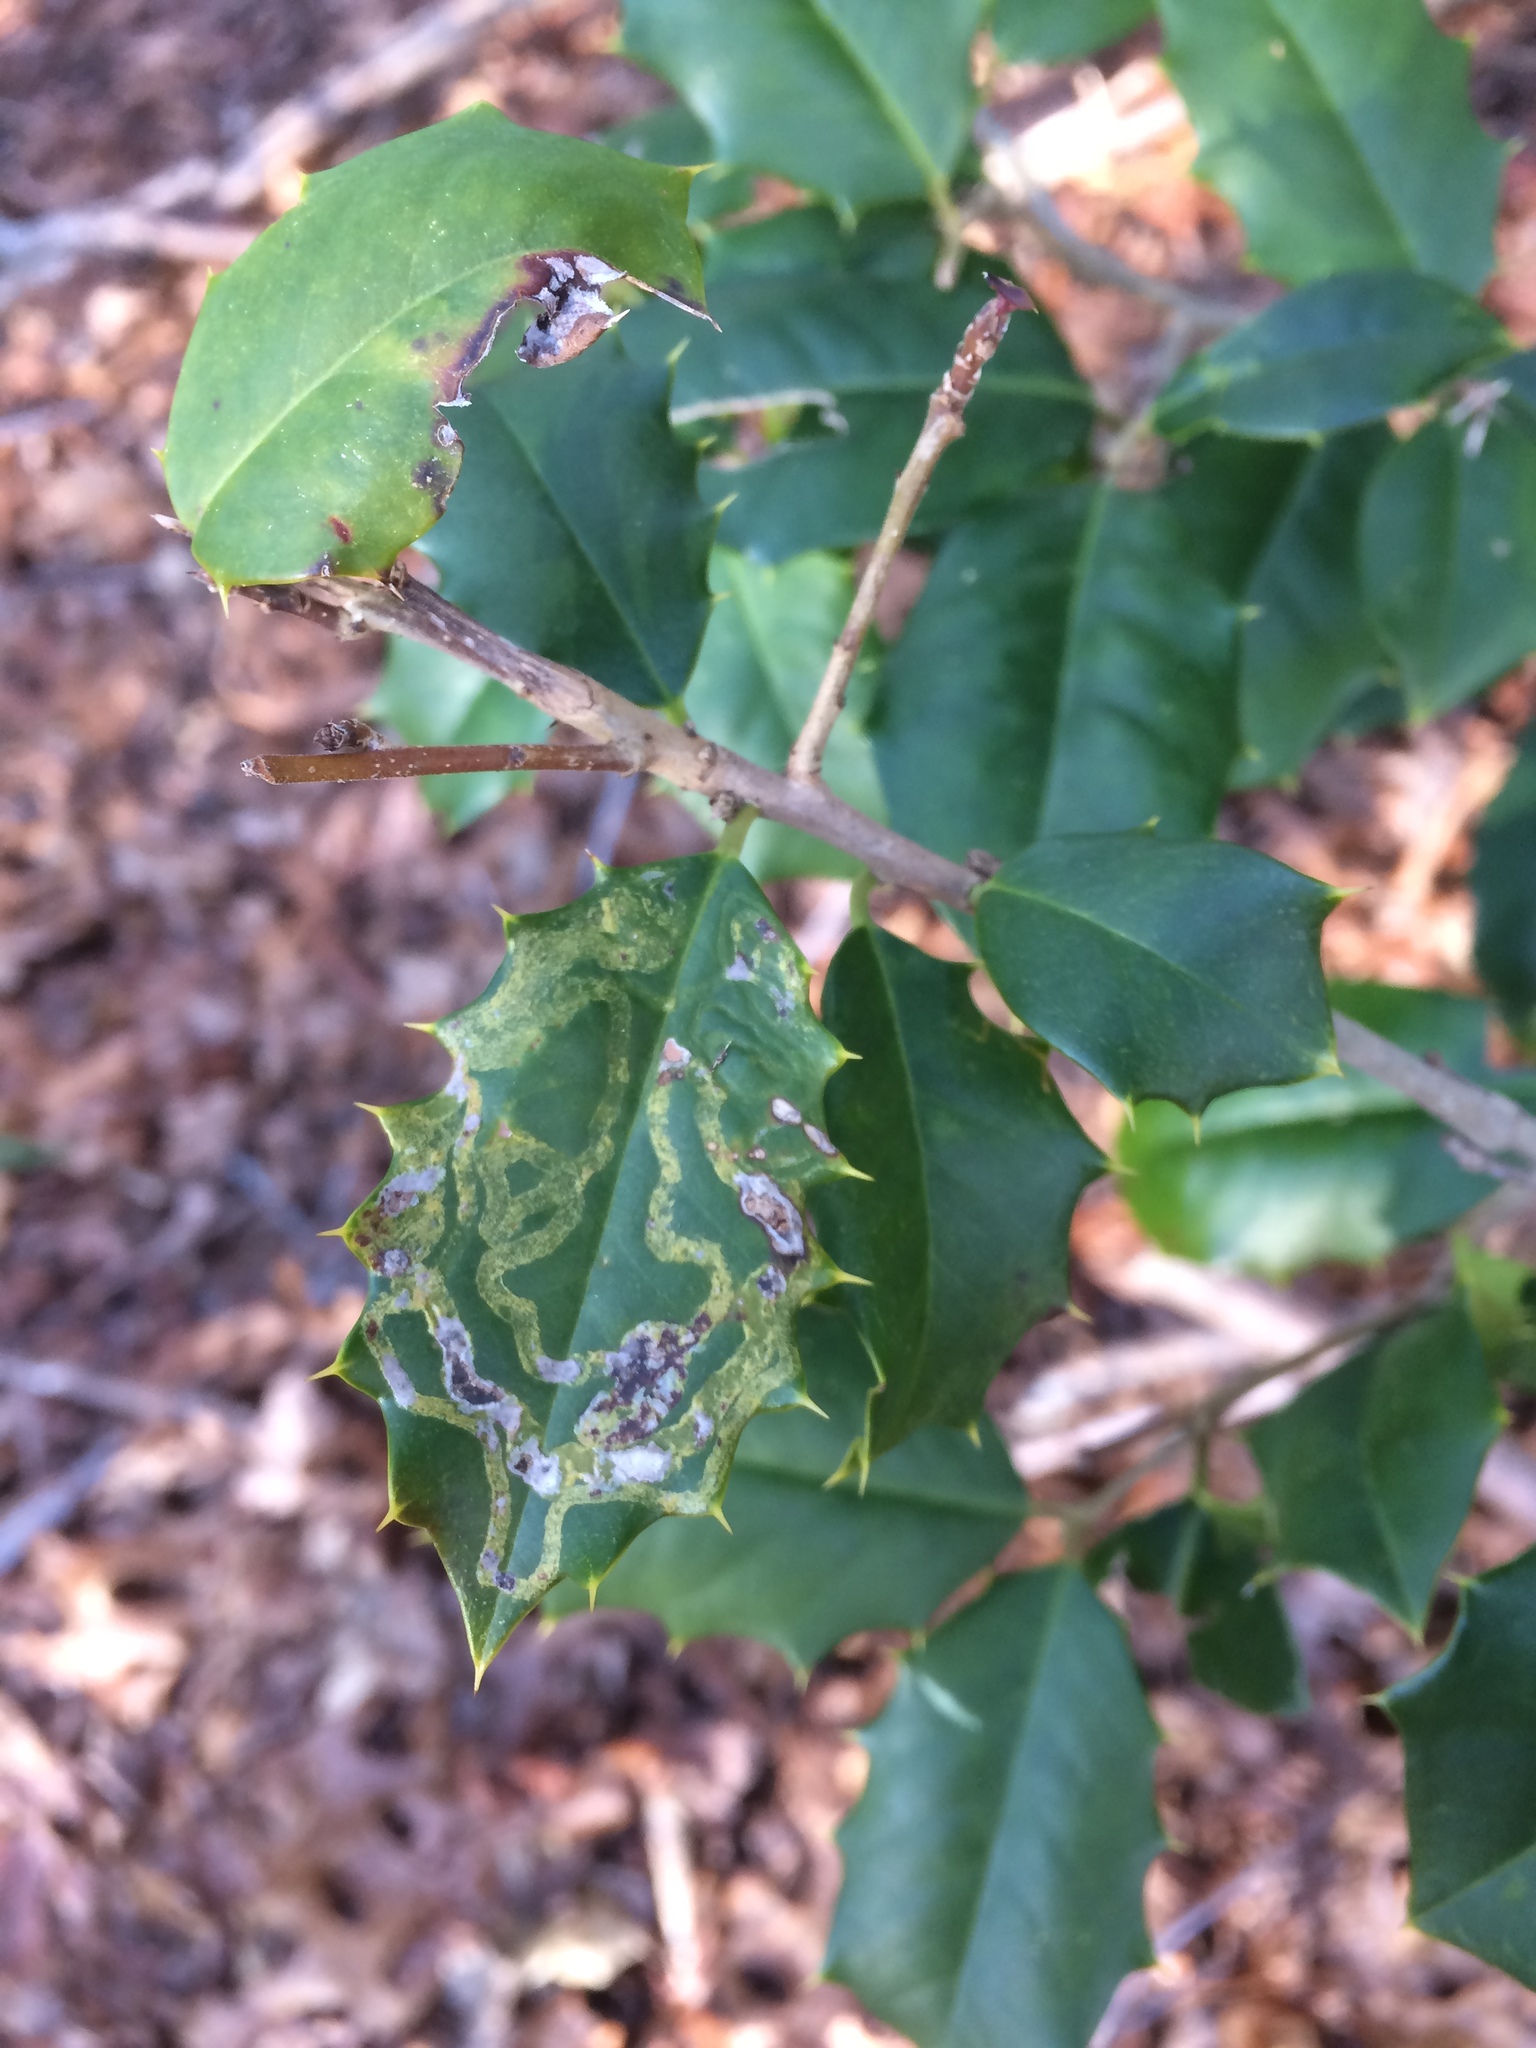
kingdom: Plantae
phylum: Tracheophyta
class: Magnoliopsida
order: Aquifoliales
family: Aquifoliaceae
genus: Ilex
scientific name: Ilex opaca
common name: American holly
